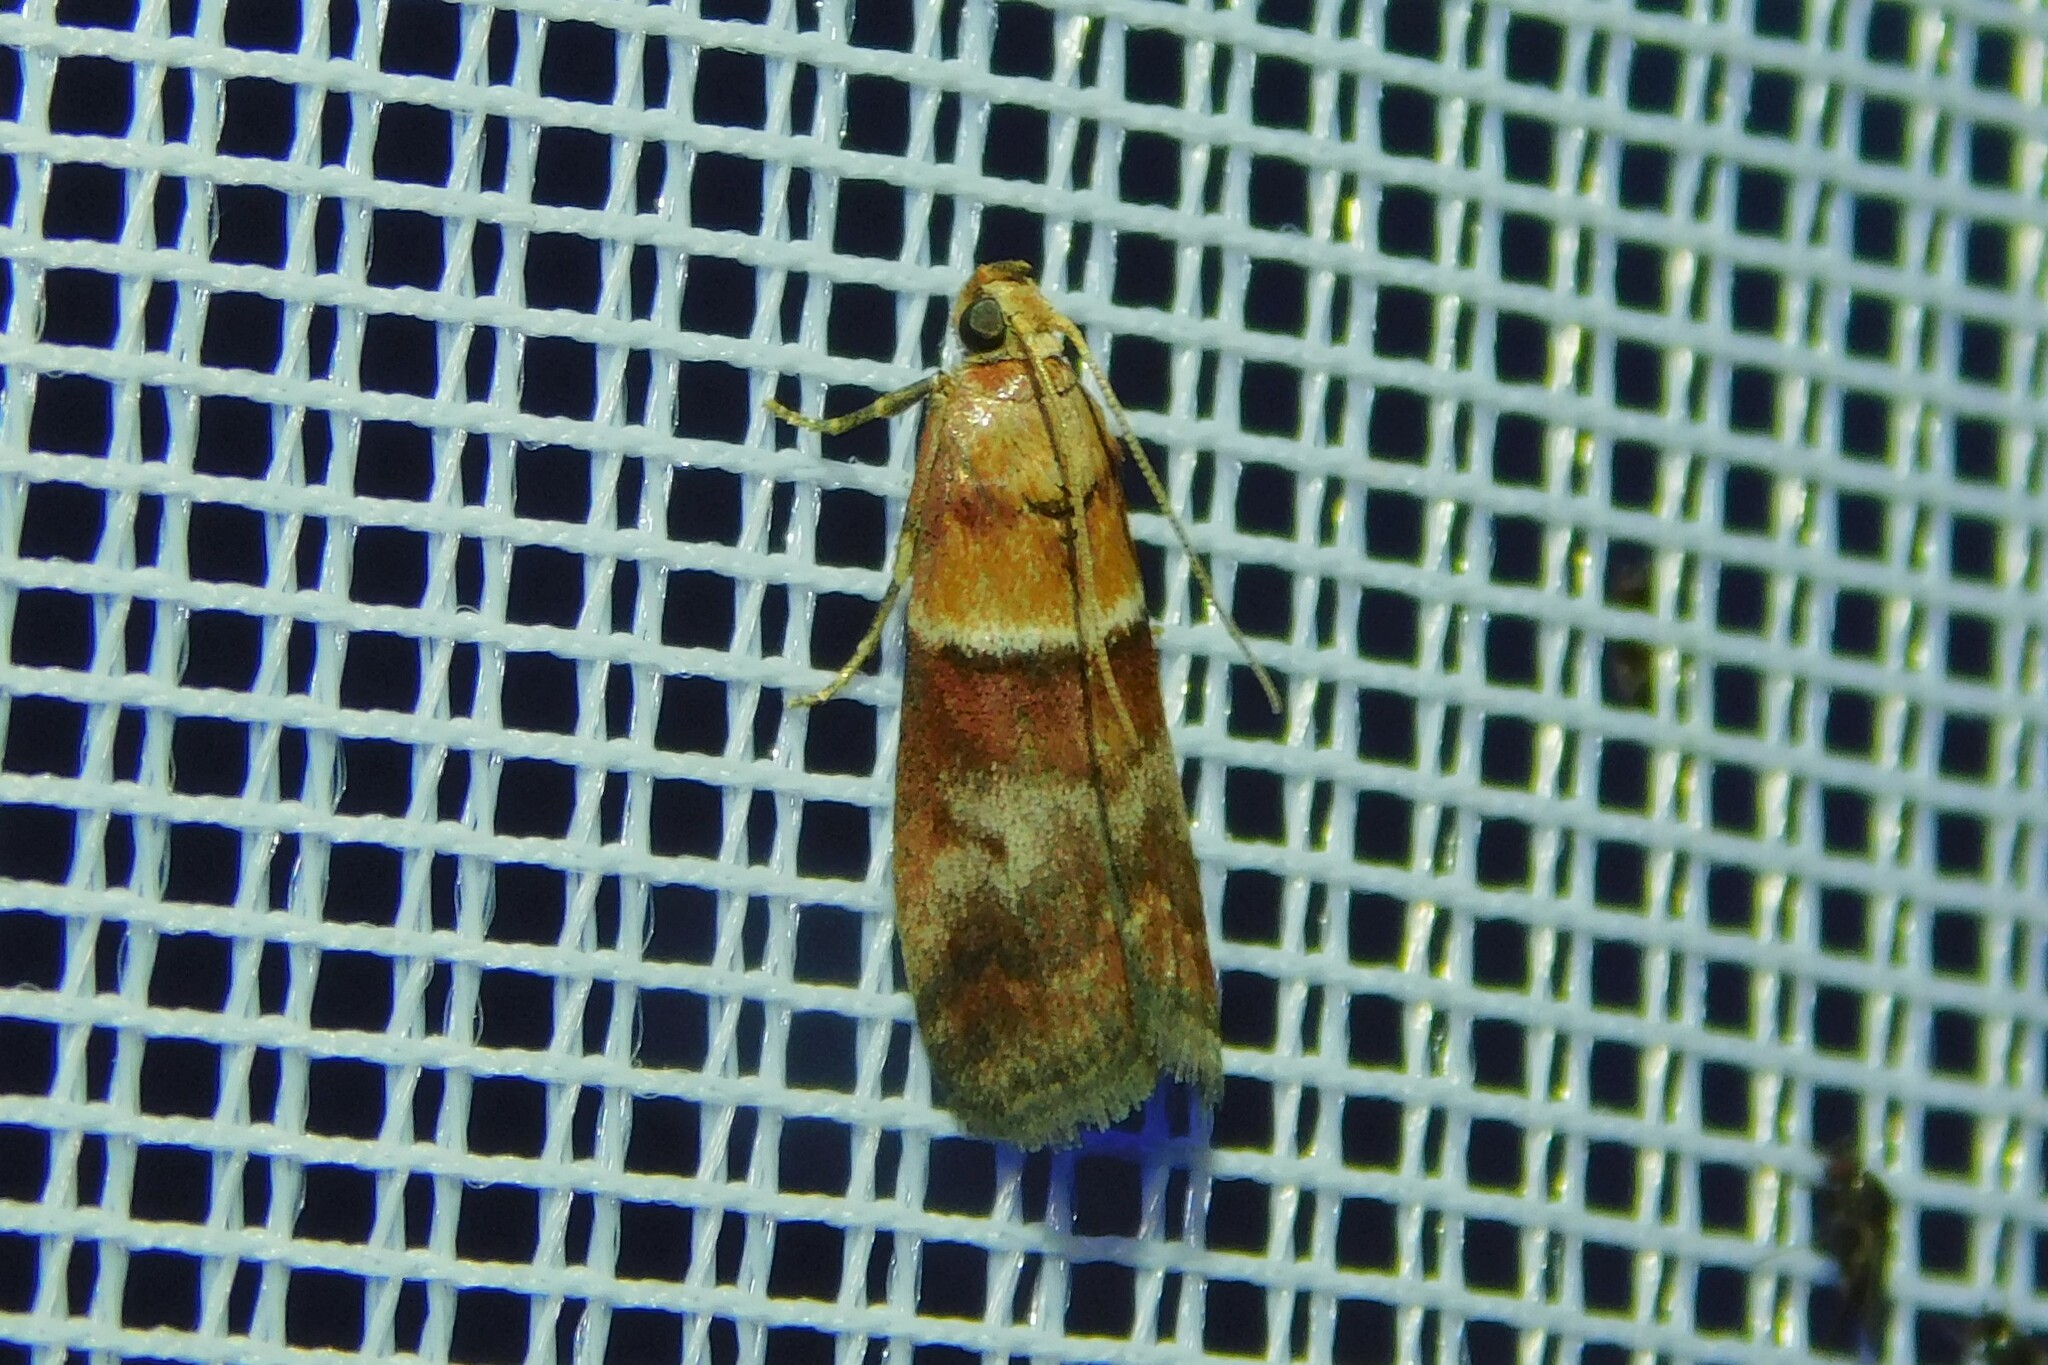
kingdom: Animalia
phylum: Arthropoda
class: Insecta
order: Lepidoptera
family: Pyralidae
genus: Acrobasis
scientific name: Acrobasis repandana
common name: Warted knot-horn
